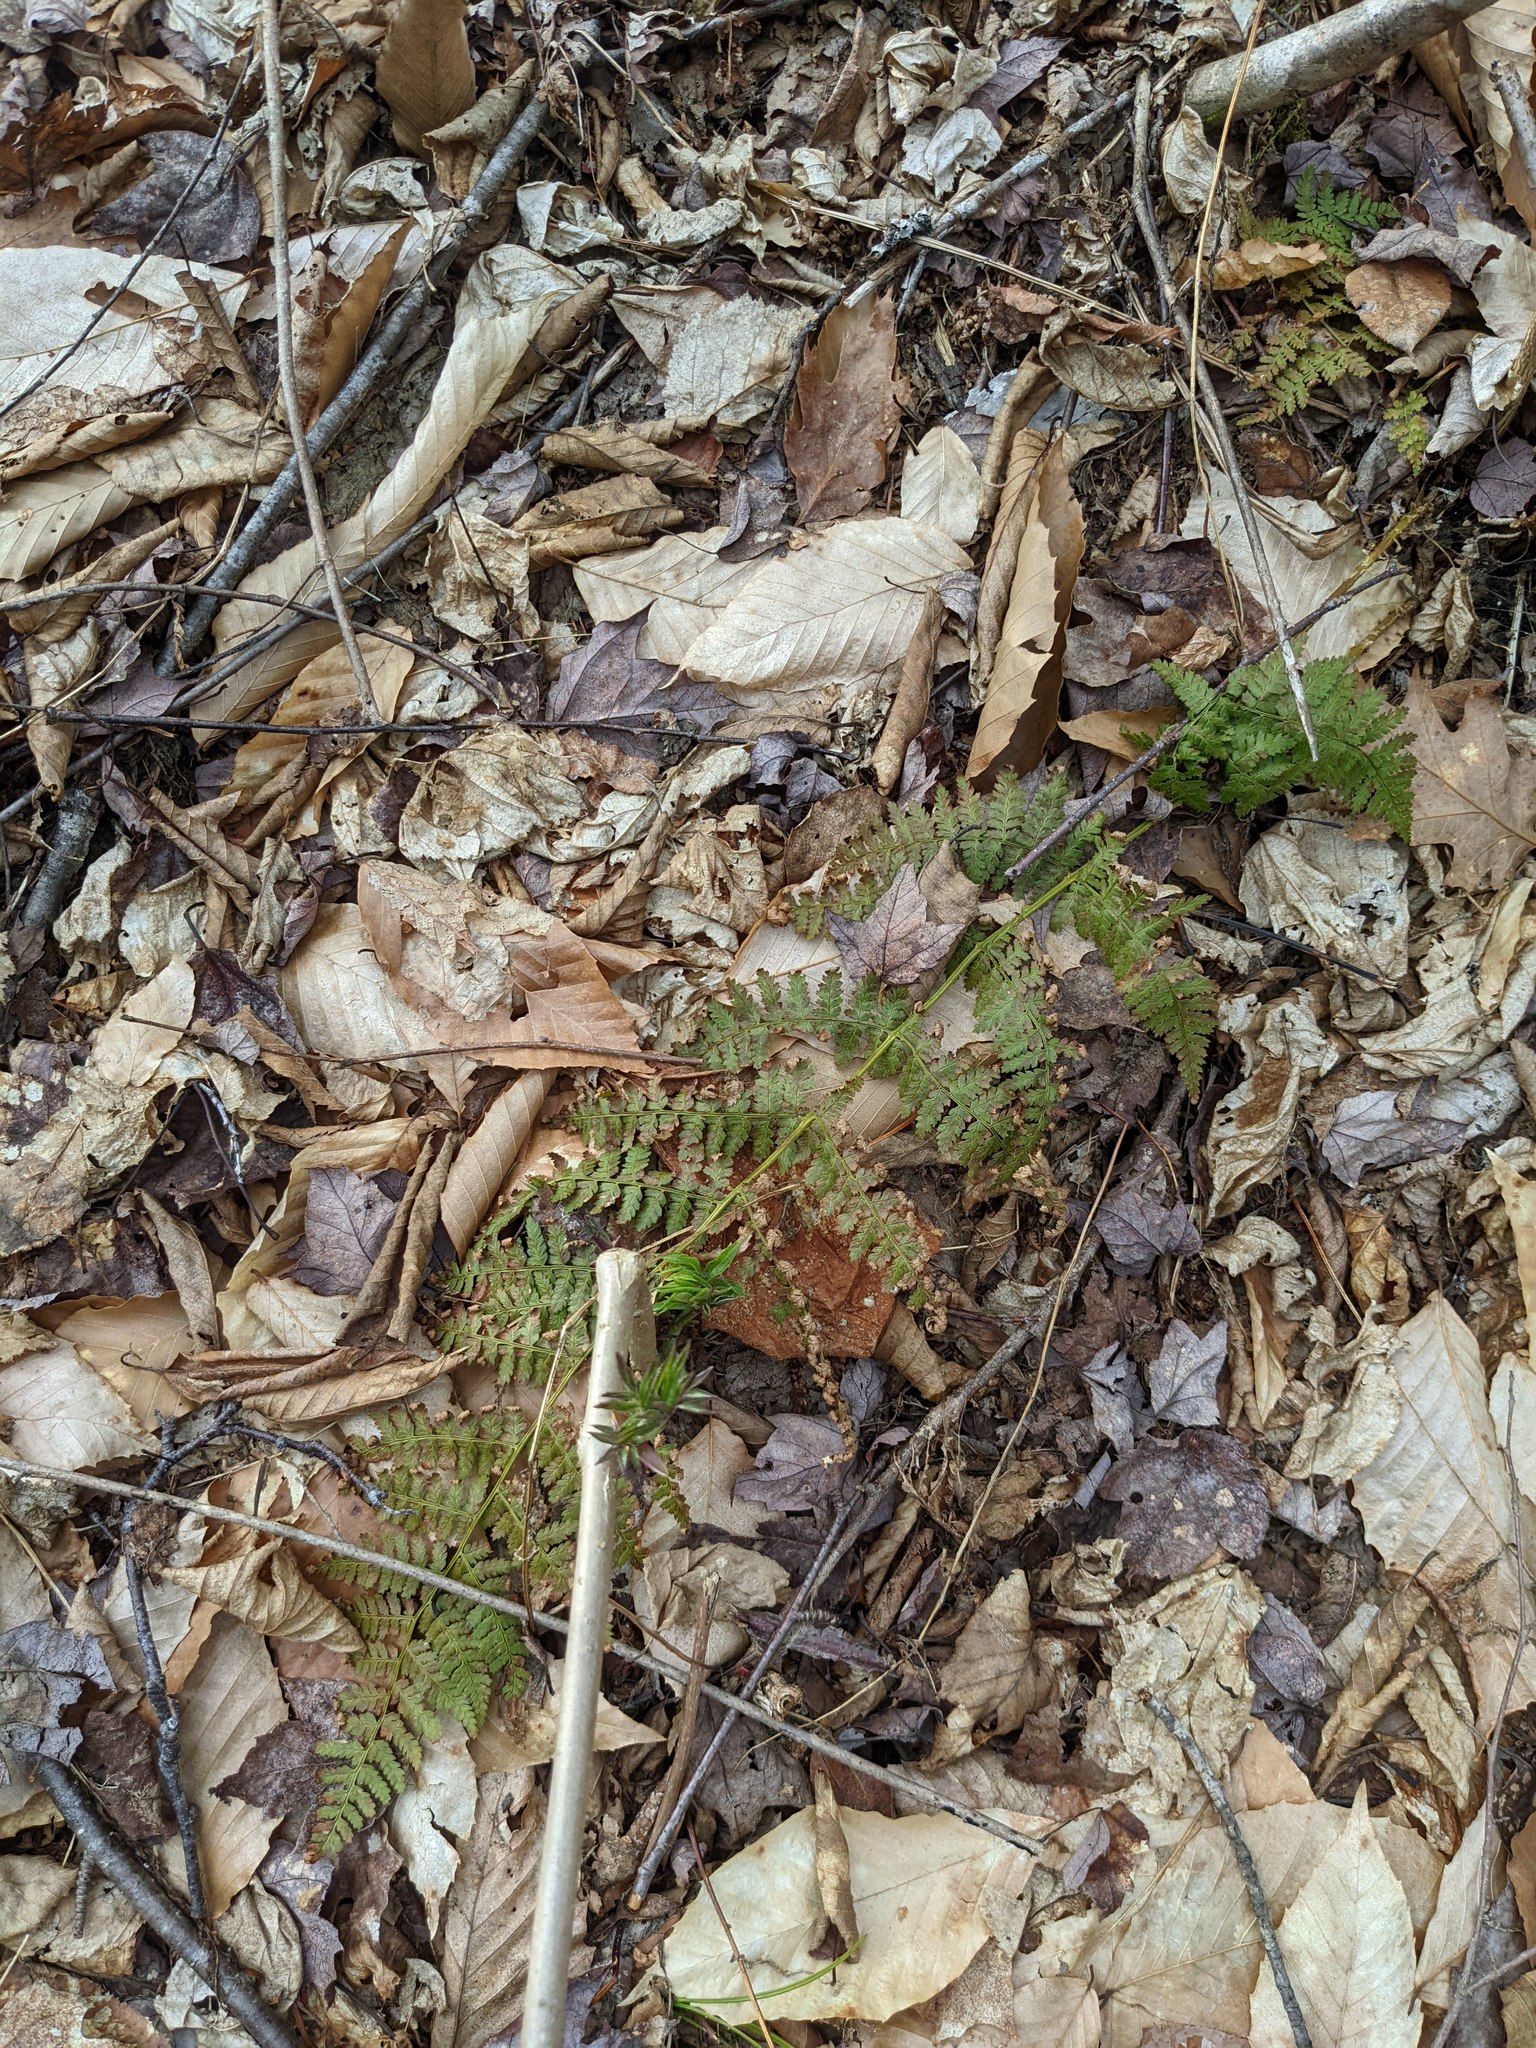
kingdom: Plantae
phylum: Tracheophyta
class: Polypodiopsida
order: Polypodiales
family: Dryopteridaceae
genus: Dryopteris
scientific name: Dryopteris intermedia
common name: Evergreen wood fern
